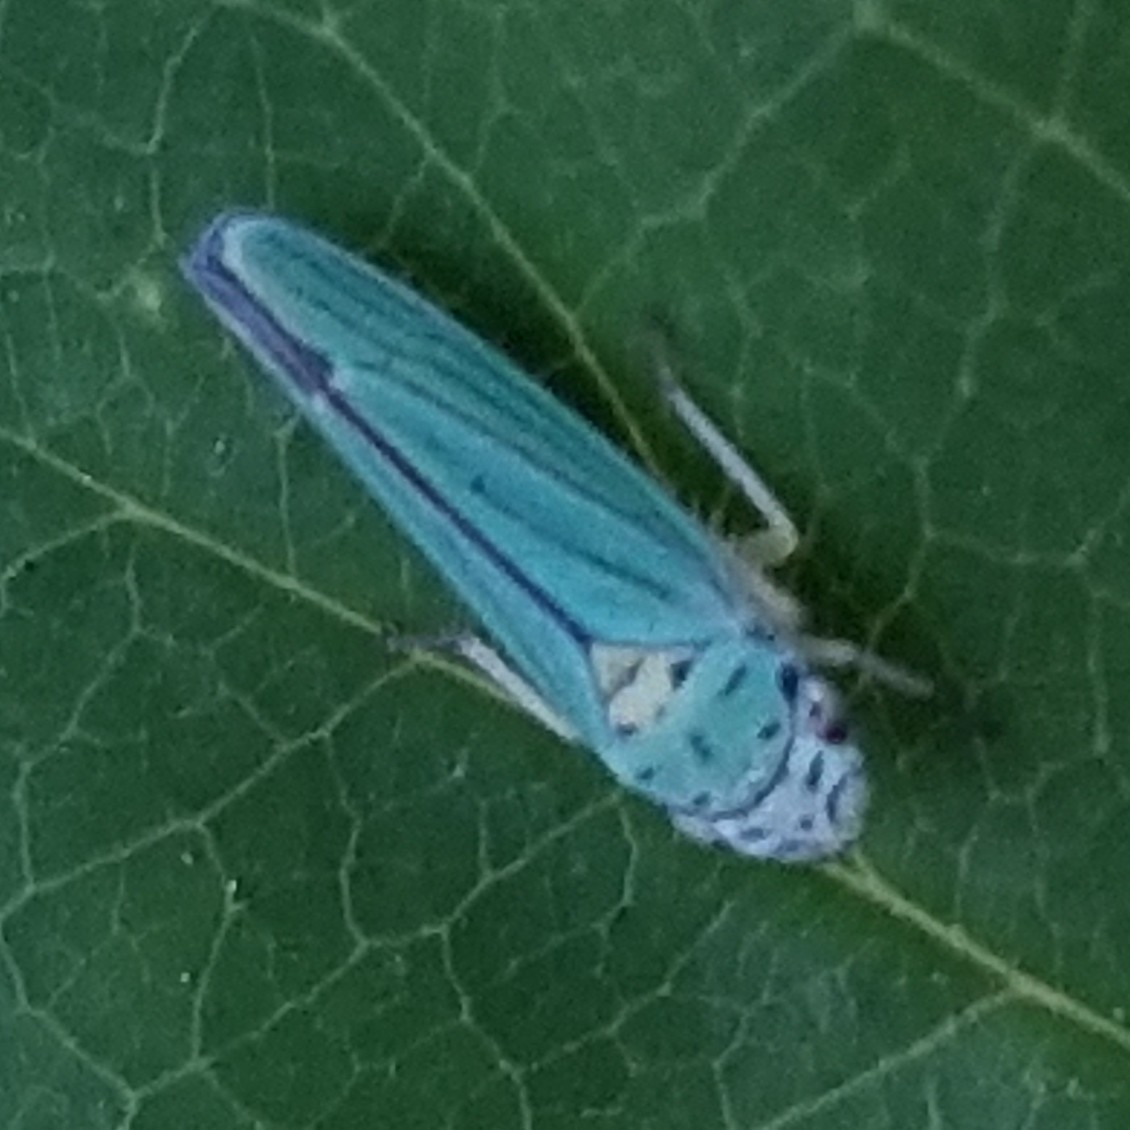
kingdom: Animalia
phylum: Arthropoda
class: Insecta
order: Hemiptera
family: Cicadellidae
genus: Graphocephala
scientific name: Graphocephala atropunctata
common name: Blue-green sharpshooter
